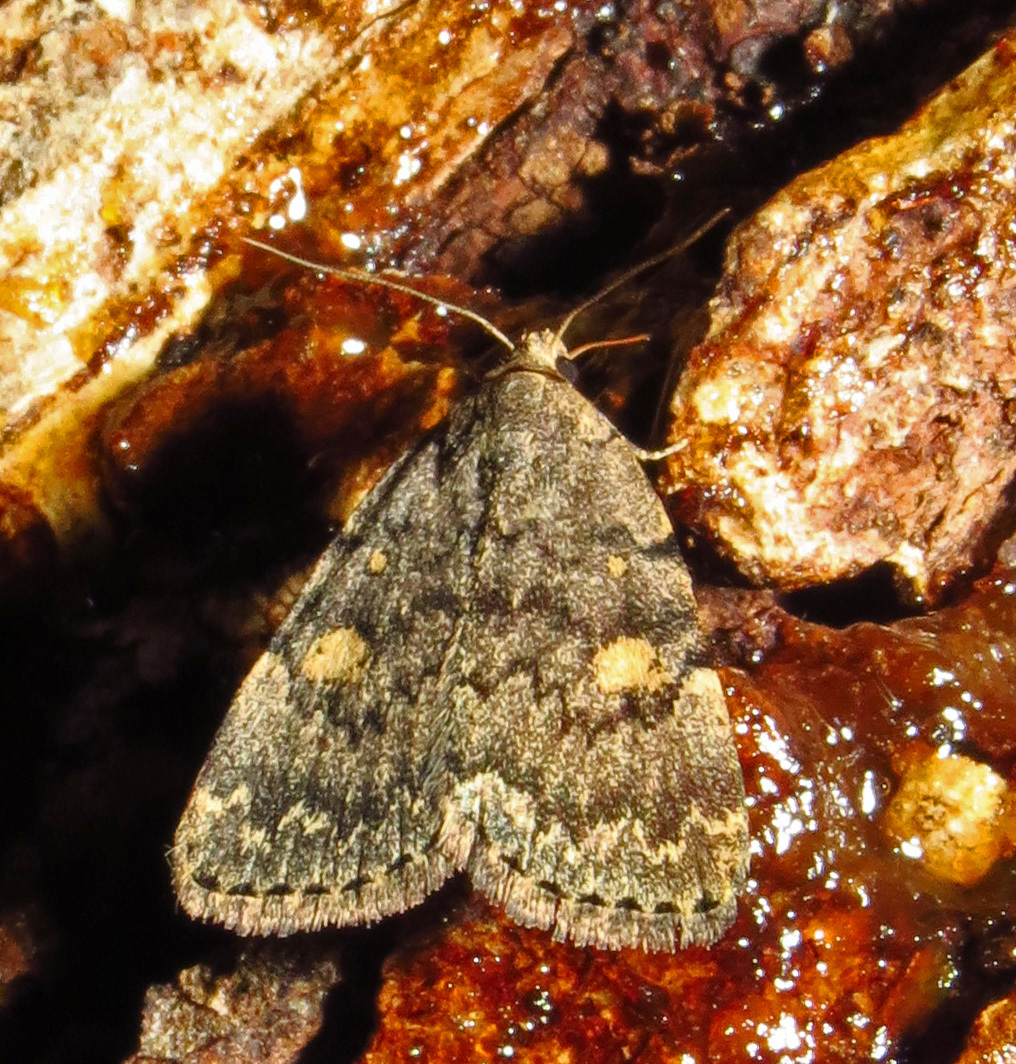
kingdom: Animalia
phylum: Arthropoda
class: Insecta
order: Lepidoptera
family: Erebidae
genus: Idia
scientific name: Idia aemula
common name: Common idia moth
